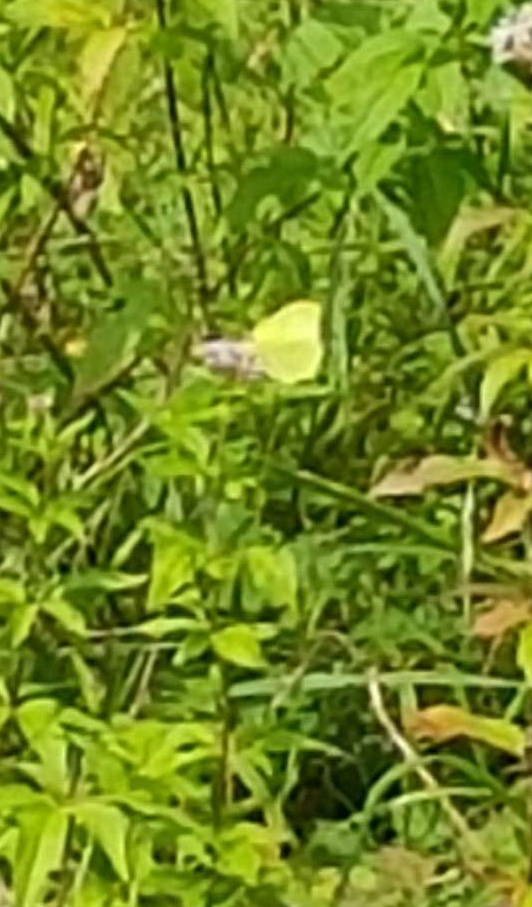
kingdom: Animalia
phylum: Arthropoda
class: Insecta
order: Lepidoptera
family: Pieridae
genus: Gonepteryx
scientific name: Gonepteryx rhamni
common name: Brimstone
